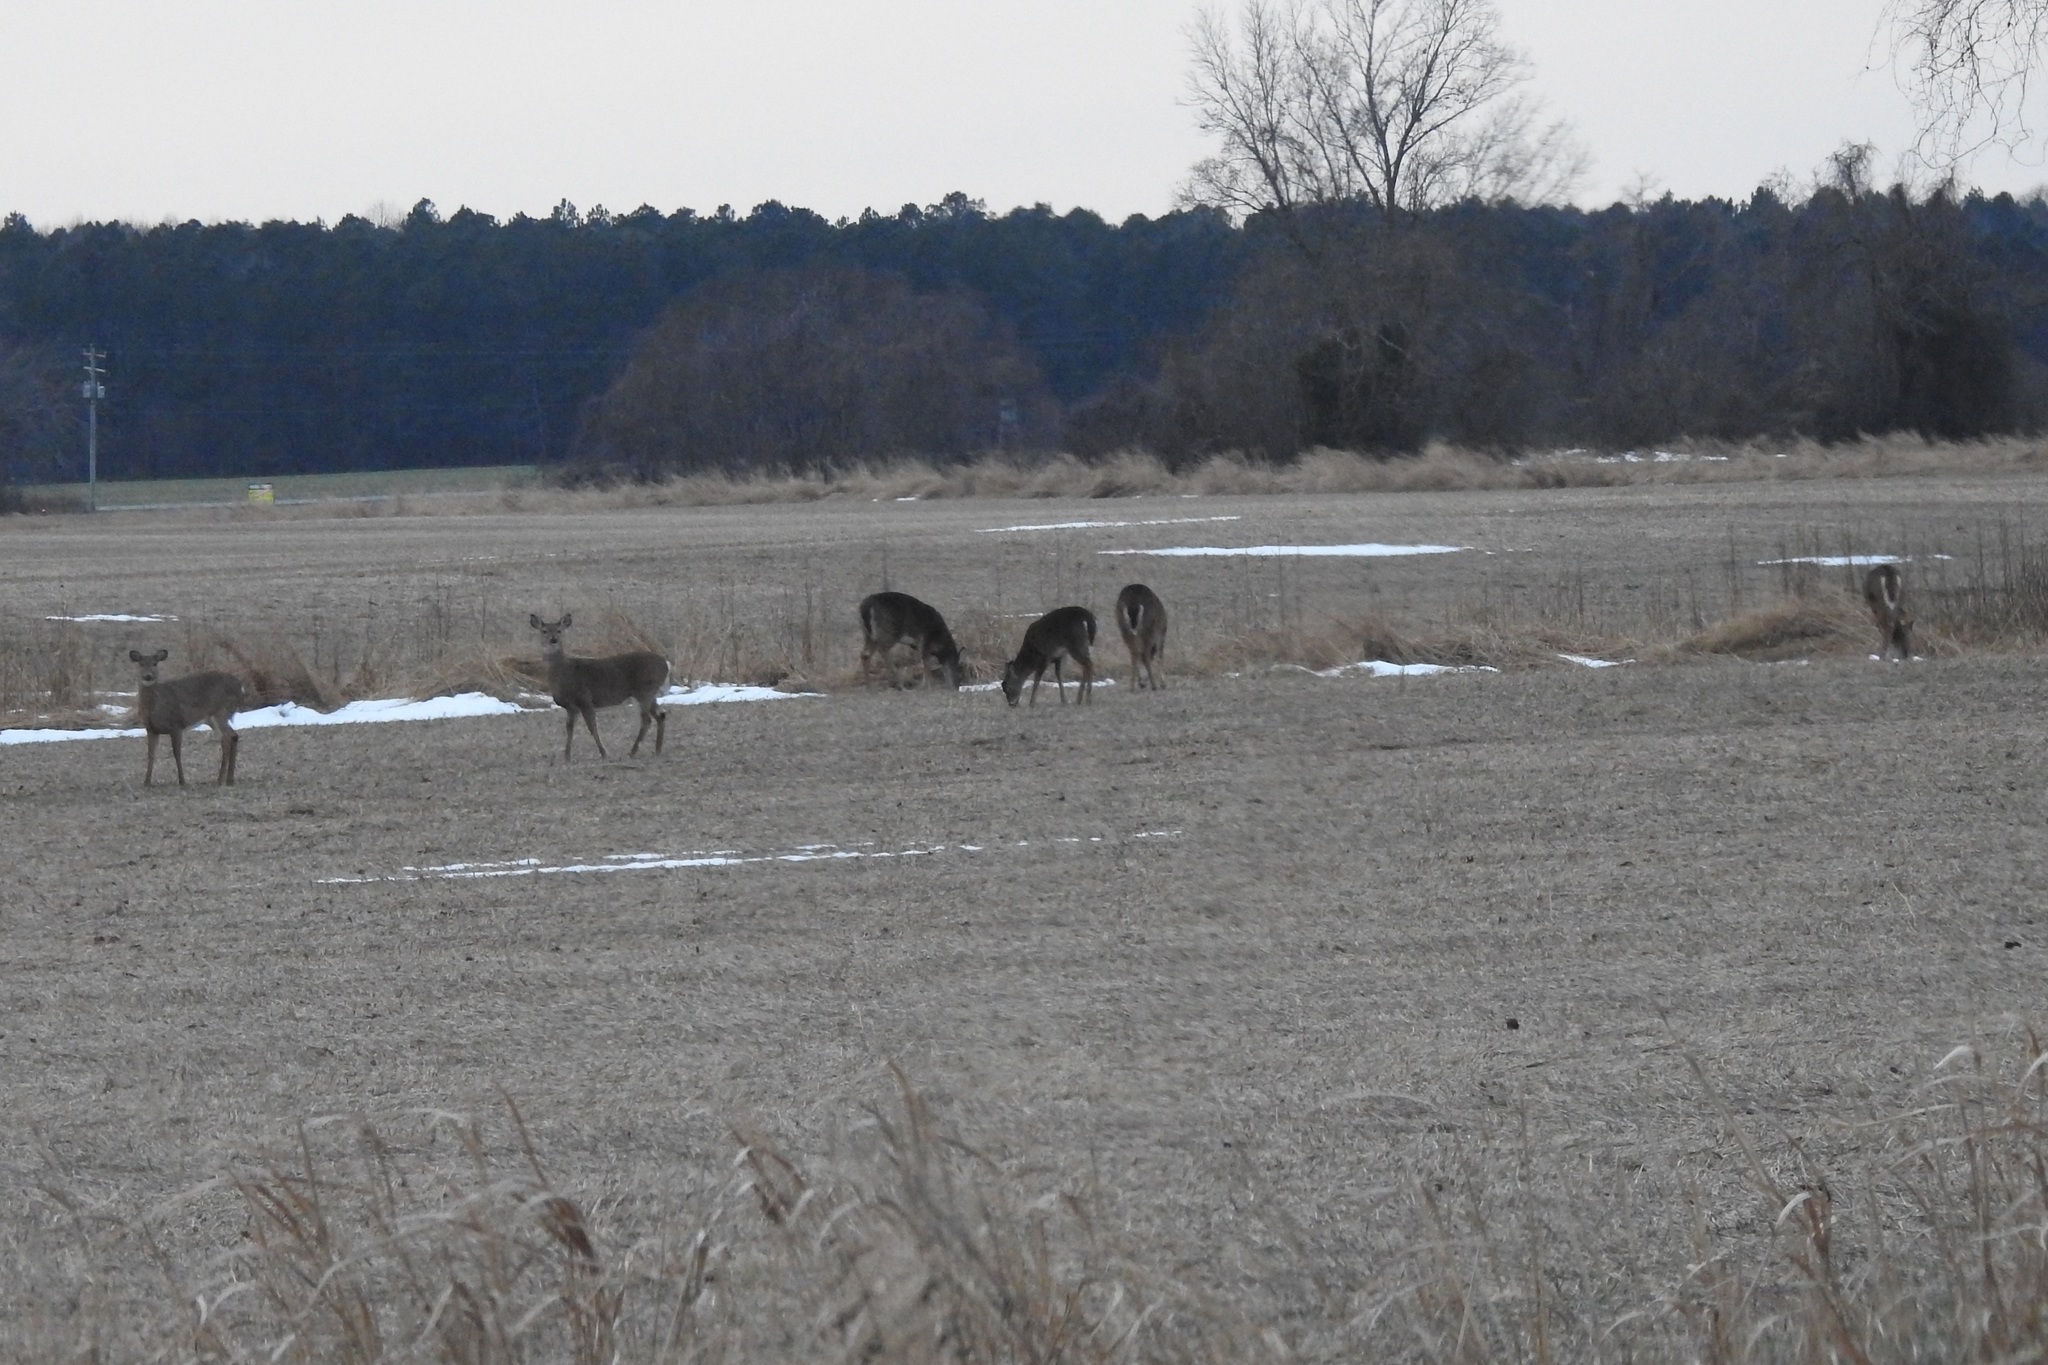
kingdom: Animalia
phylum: Chordata
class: Mammalia
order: Artiodactyla
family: Cervidae
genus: Odocoileus
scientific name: Odocoileus virginianus
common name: White-tailed deer
